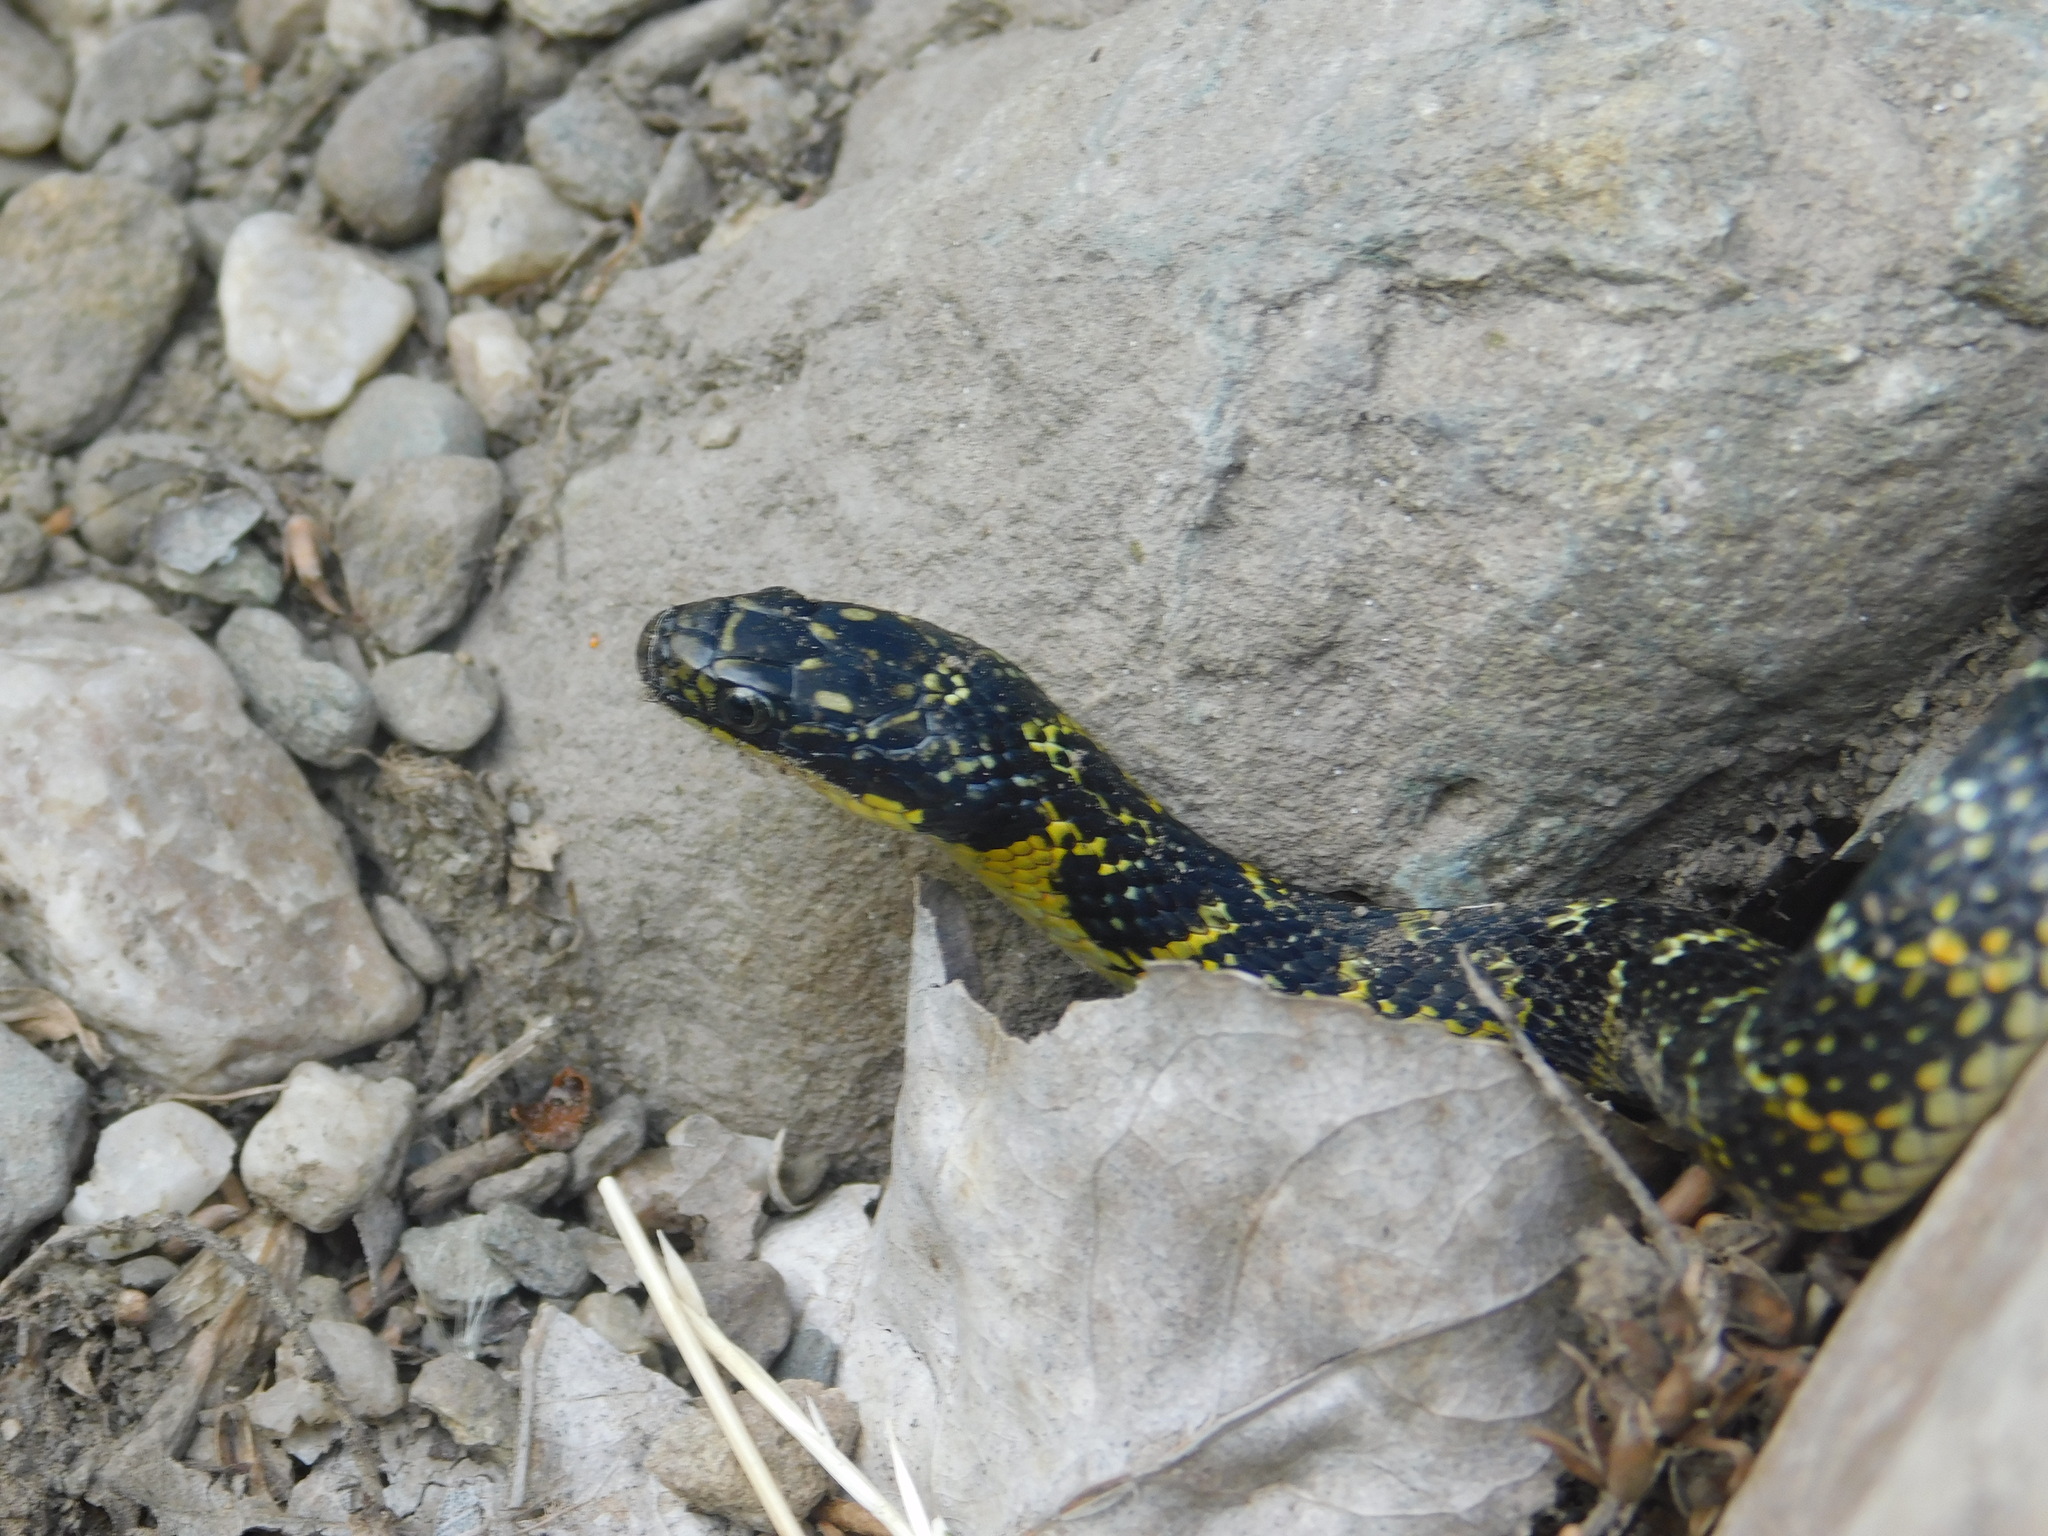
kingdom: Animalia
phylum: Chordata
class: Squamata
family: Colubridae
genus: Erythrolamprus
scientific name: Erythrolamprus poecilogyrus
